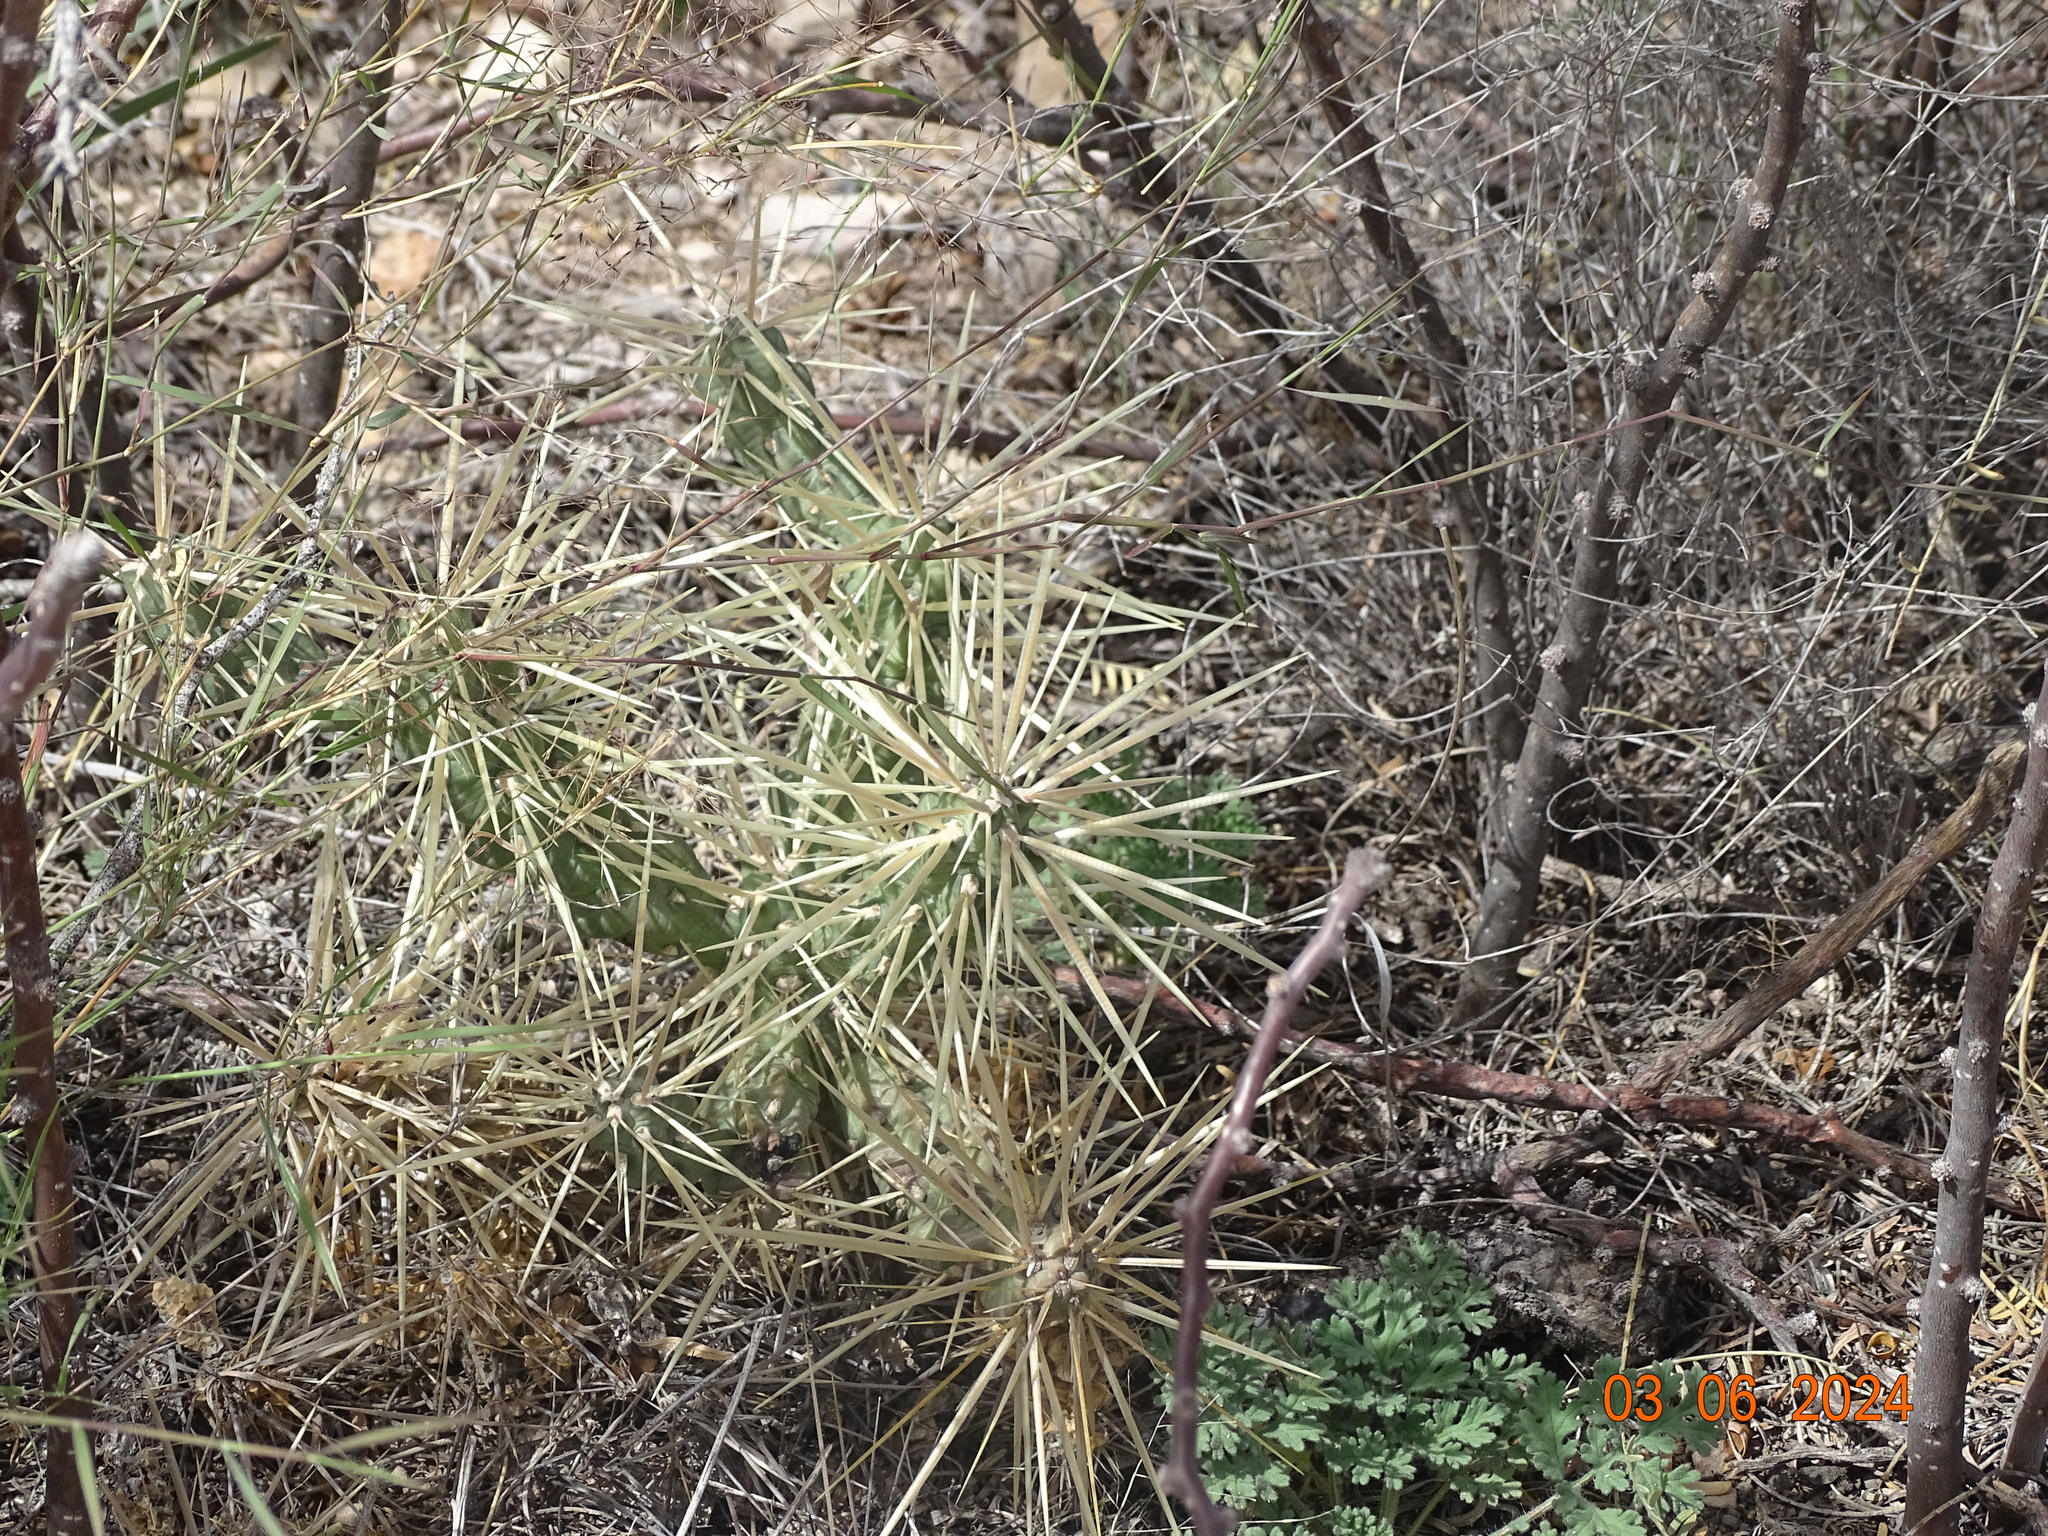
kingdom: Plantae
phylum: Tracheophyta
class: Magnoliopsida
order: Caryophyllales
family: Cactaceae
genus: Cylindropuntia
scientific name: Cylindropuntia tunicata
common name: Sheathed cholla
